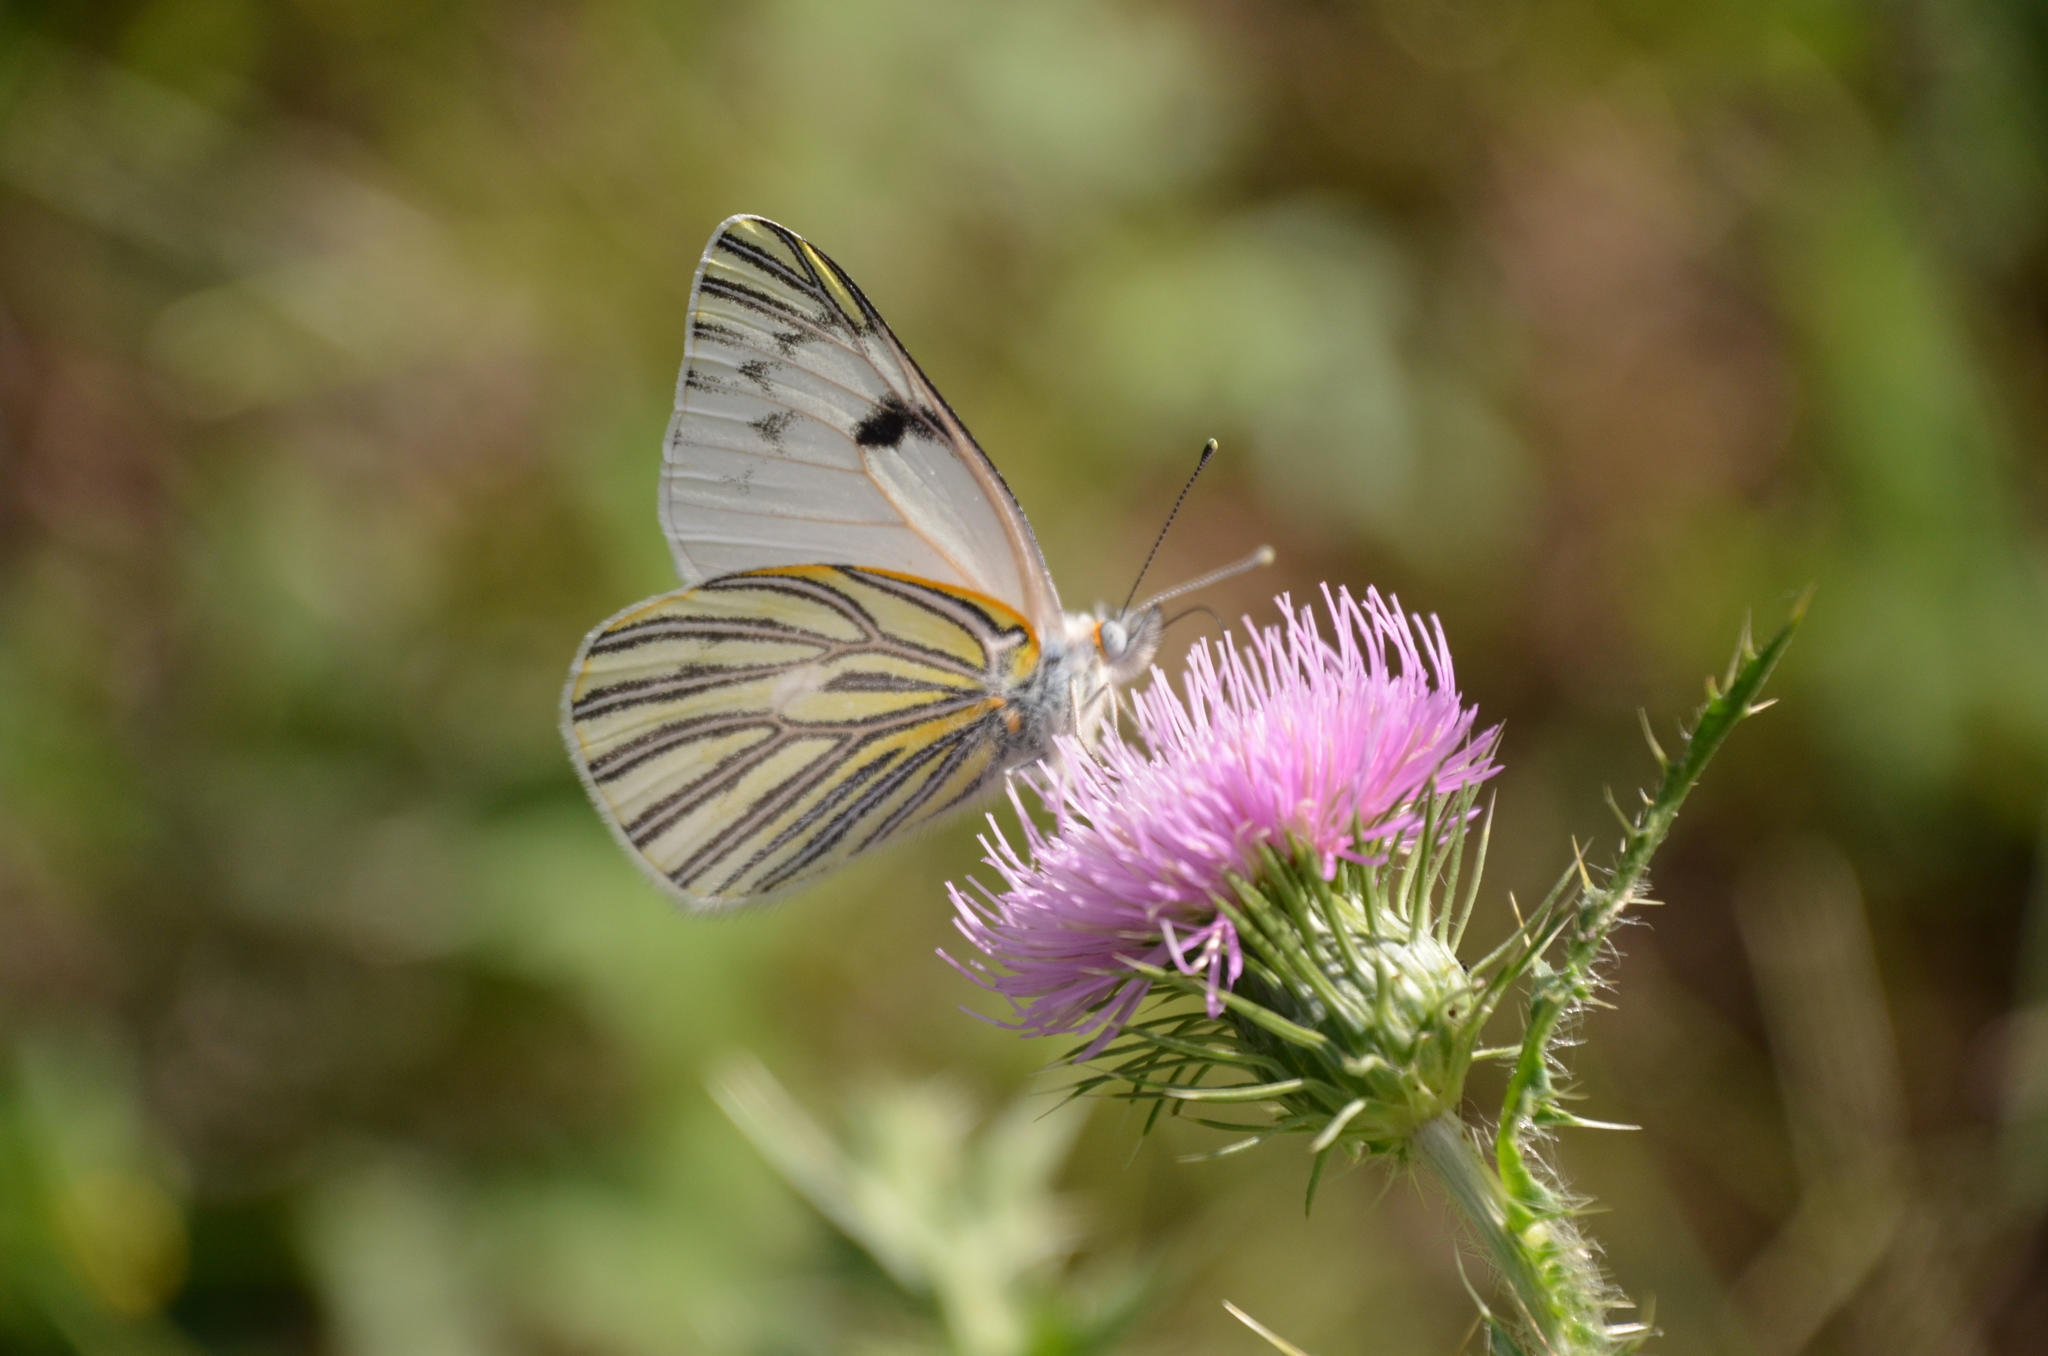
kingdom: Animalia
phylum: Arthropoda
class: Insecta
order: Lepidoptera
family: Pieridae
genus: Tatochila
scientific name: Tatochila mercedis
